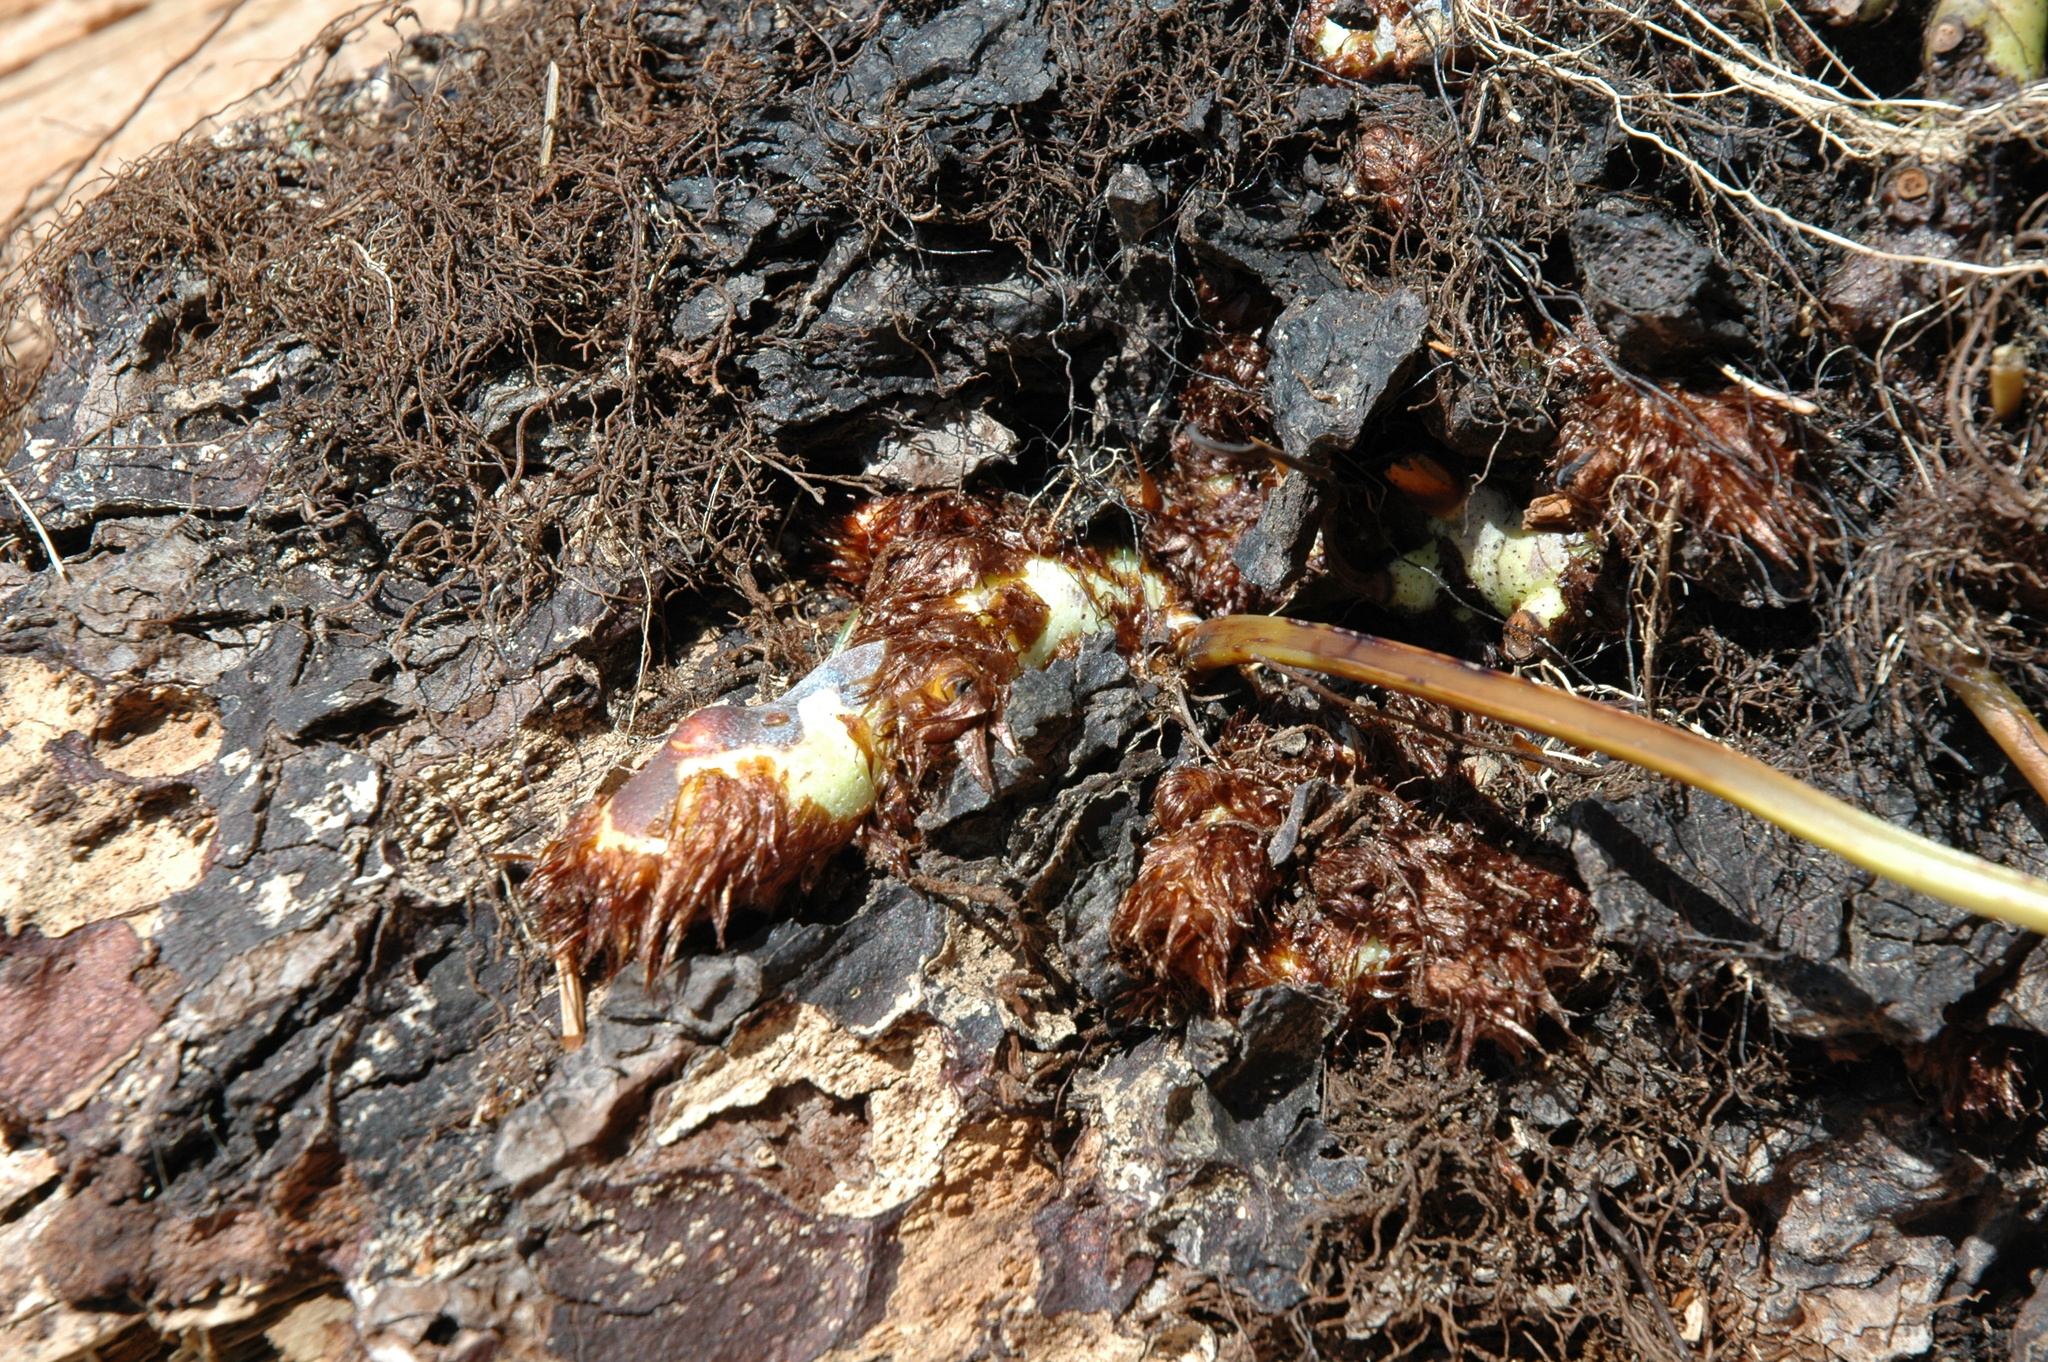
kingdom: Plantae
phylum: Tracheophyta
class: Polypodiopsida
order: Polypodiales
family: Polypodiaceae
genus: Polypodium
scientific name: Polypodium scouleri
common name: Scouler's polypody
